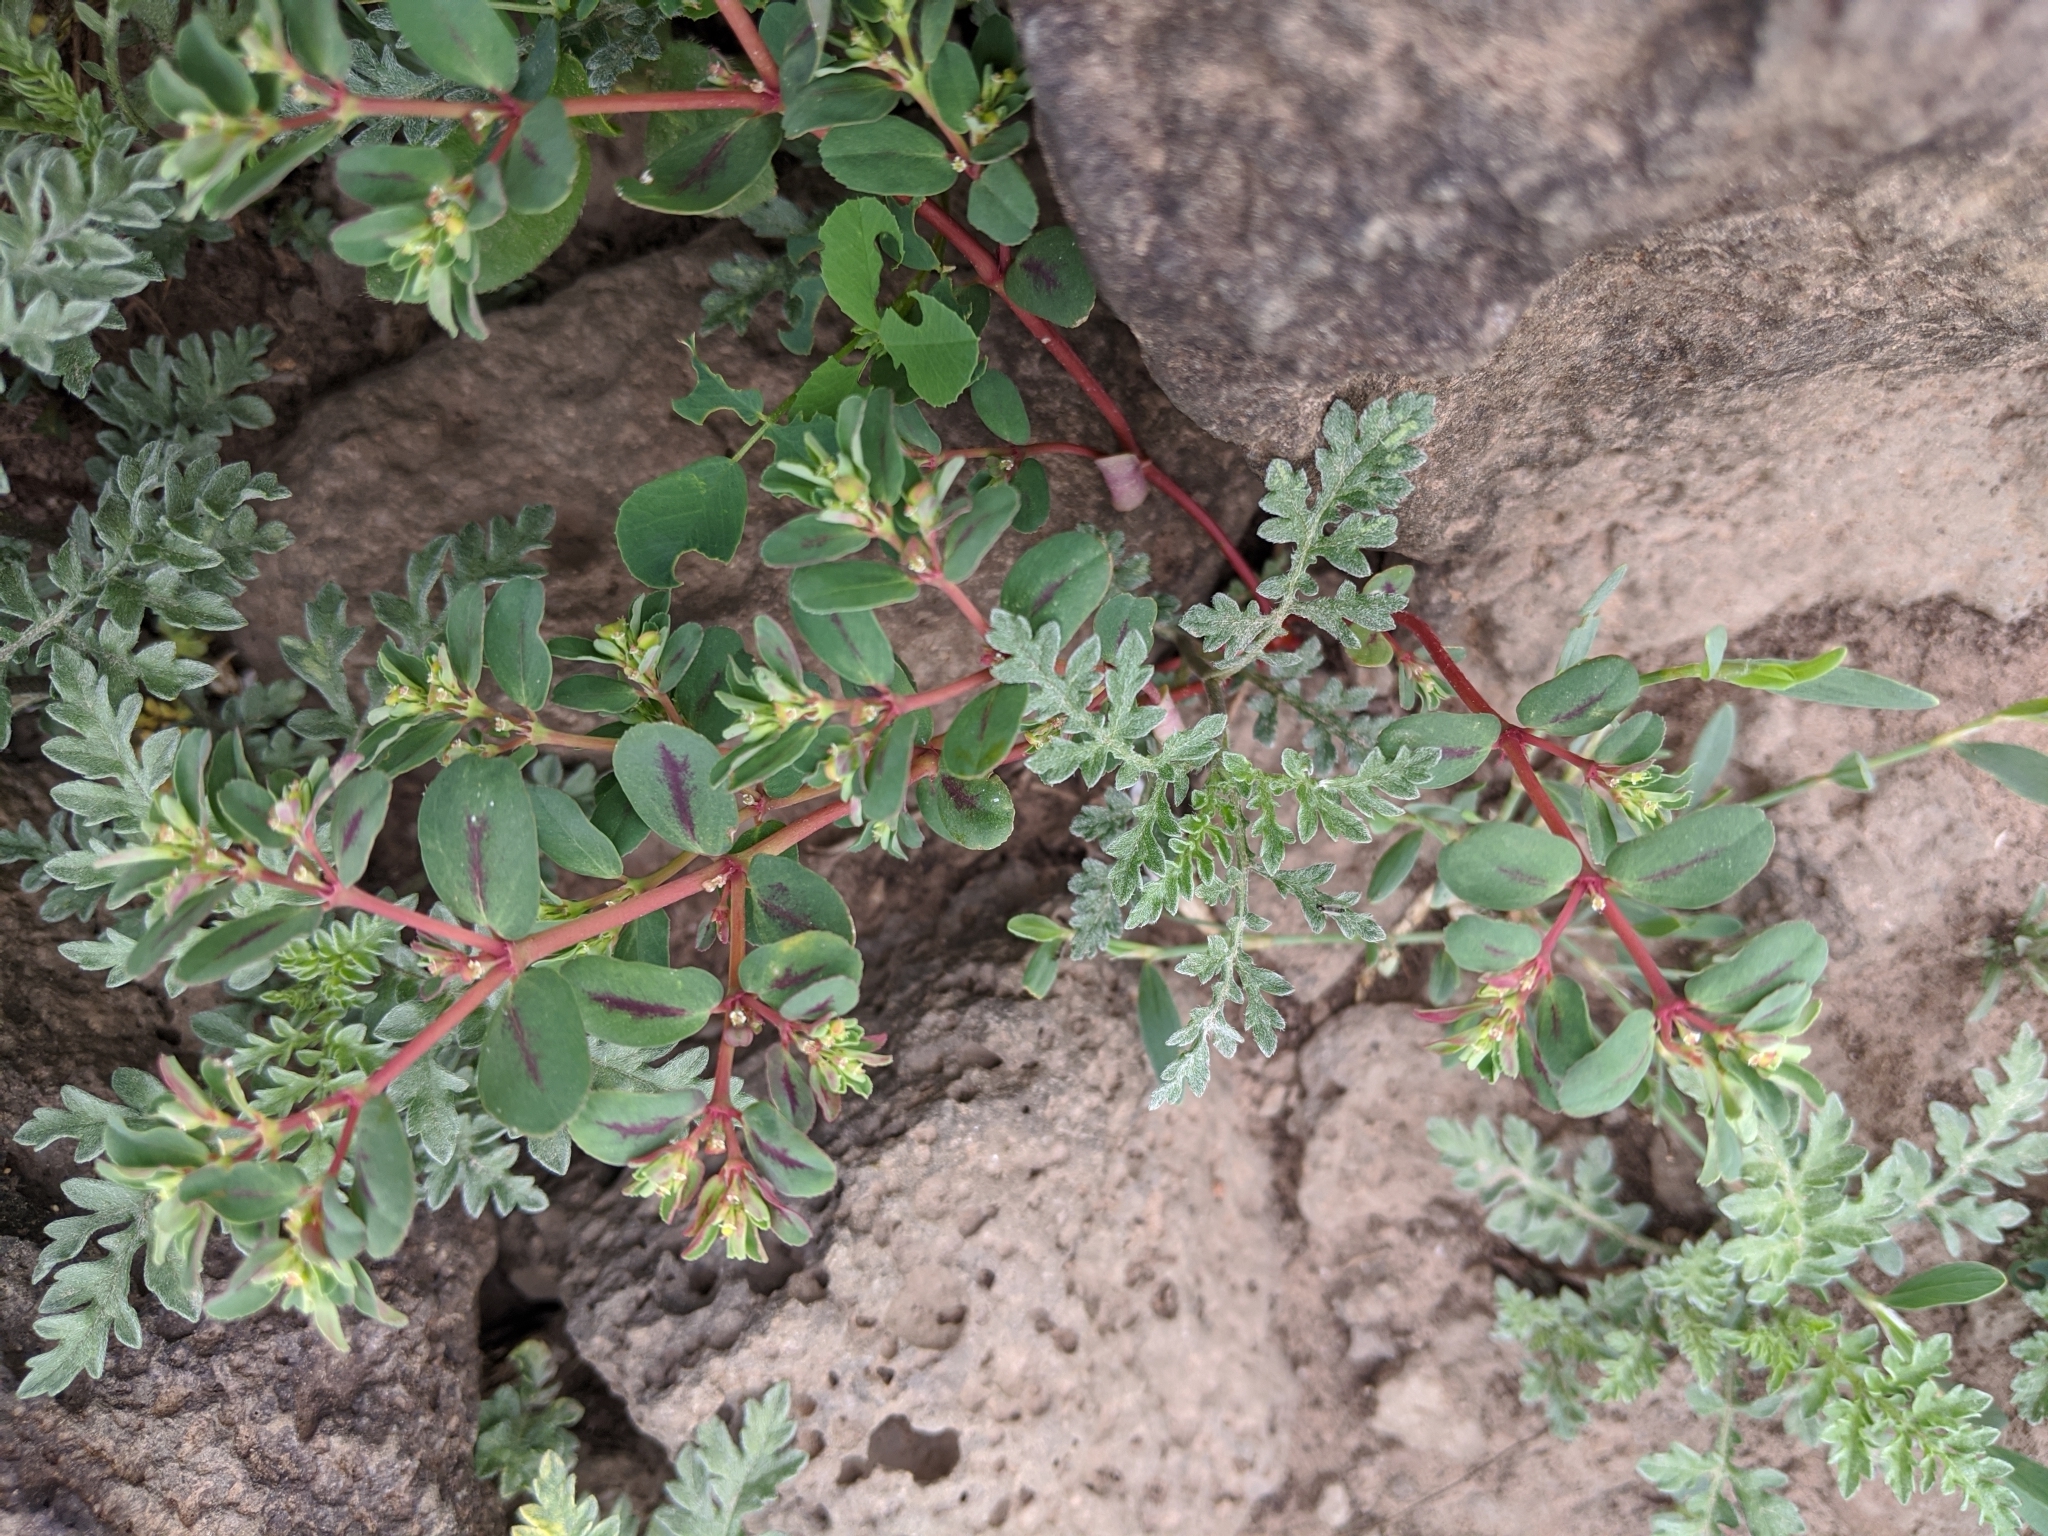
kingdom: Plantae
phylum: Tracheophyta
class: Magnoliopsida
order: Malpighiales
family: Euphorbiaceae
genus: Euphorbia
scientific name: Euphorbia serpillifolia
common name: Thyme-leaf spurge
